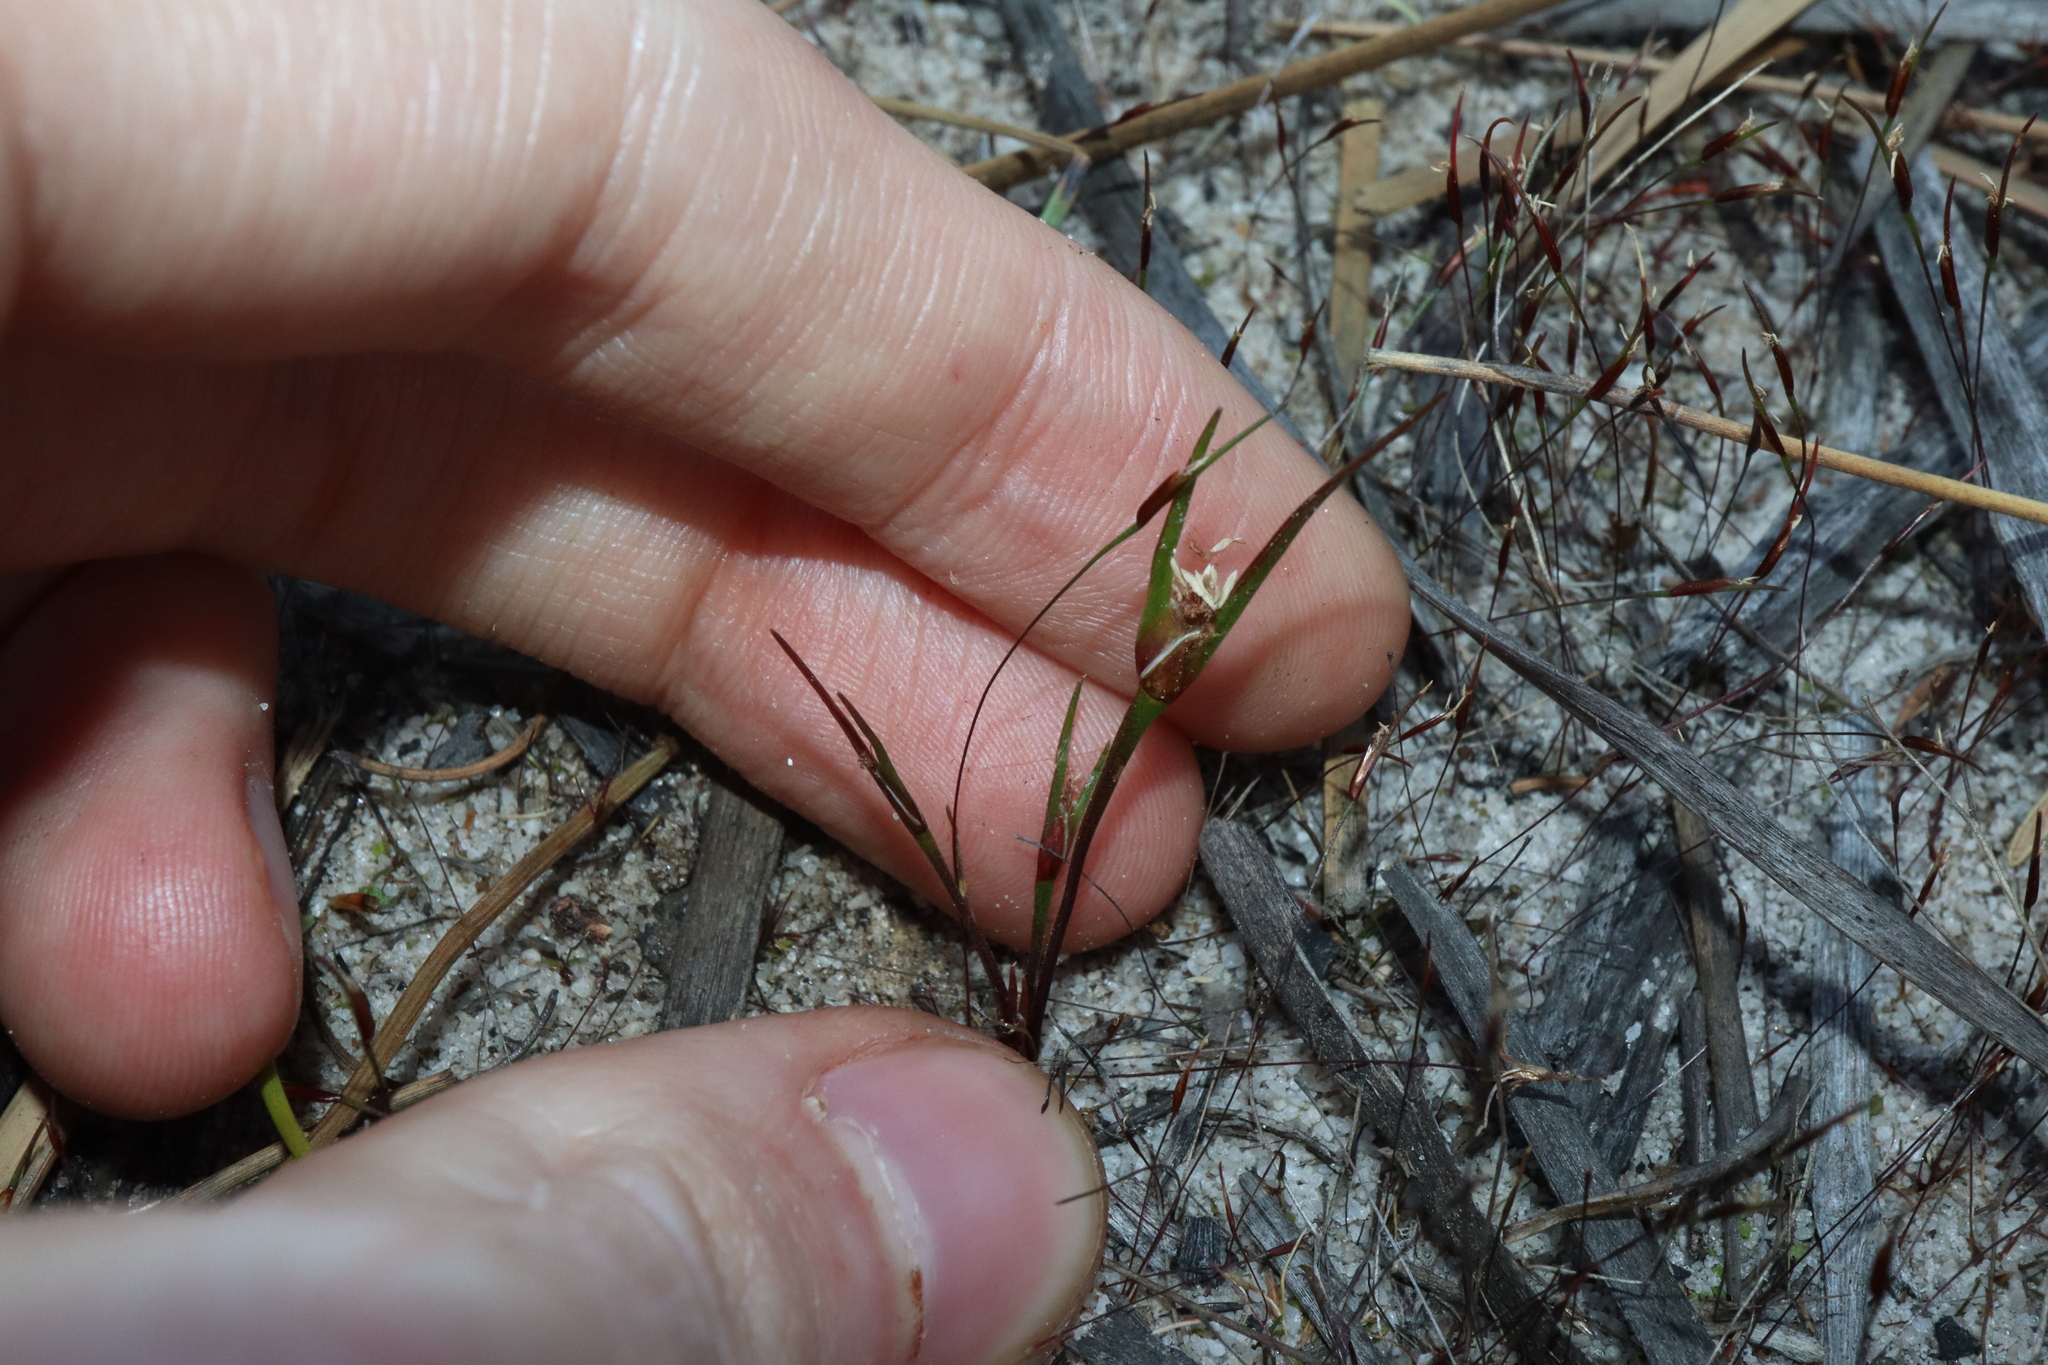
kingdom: Plantae
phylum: Tracheophyta
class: Liliopsida
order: Poales
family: Restionaceae
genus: Centrolepis
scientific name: Centrolepis aristata
